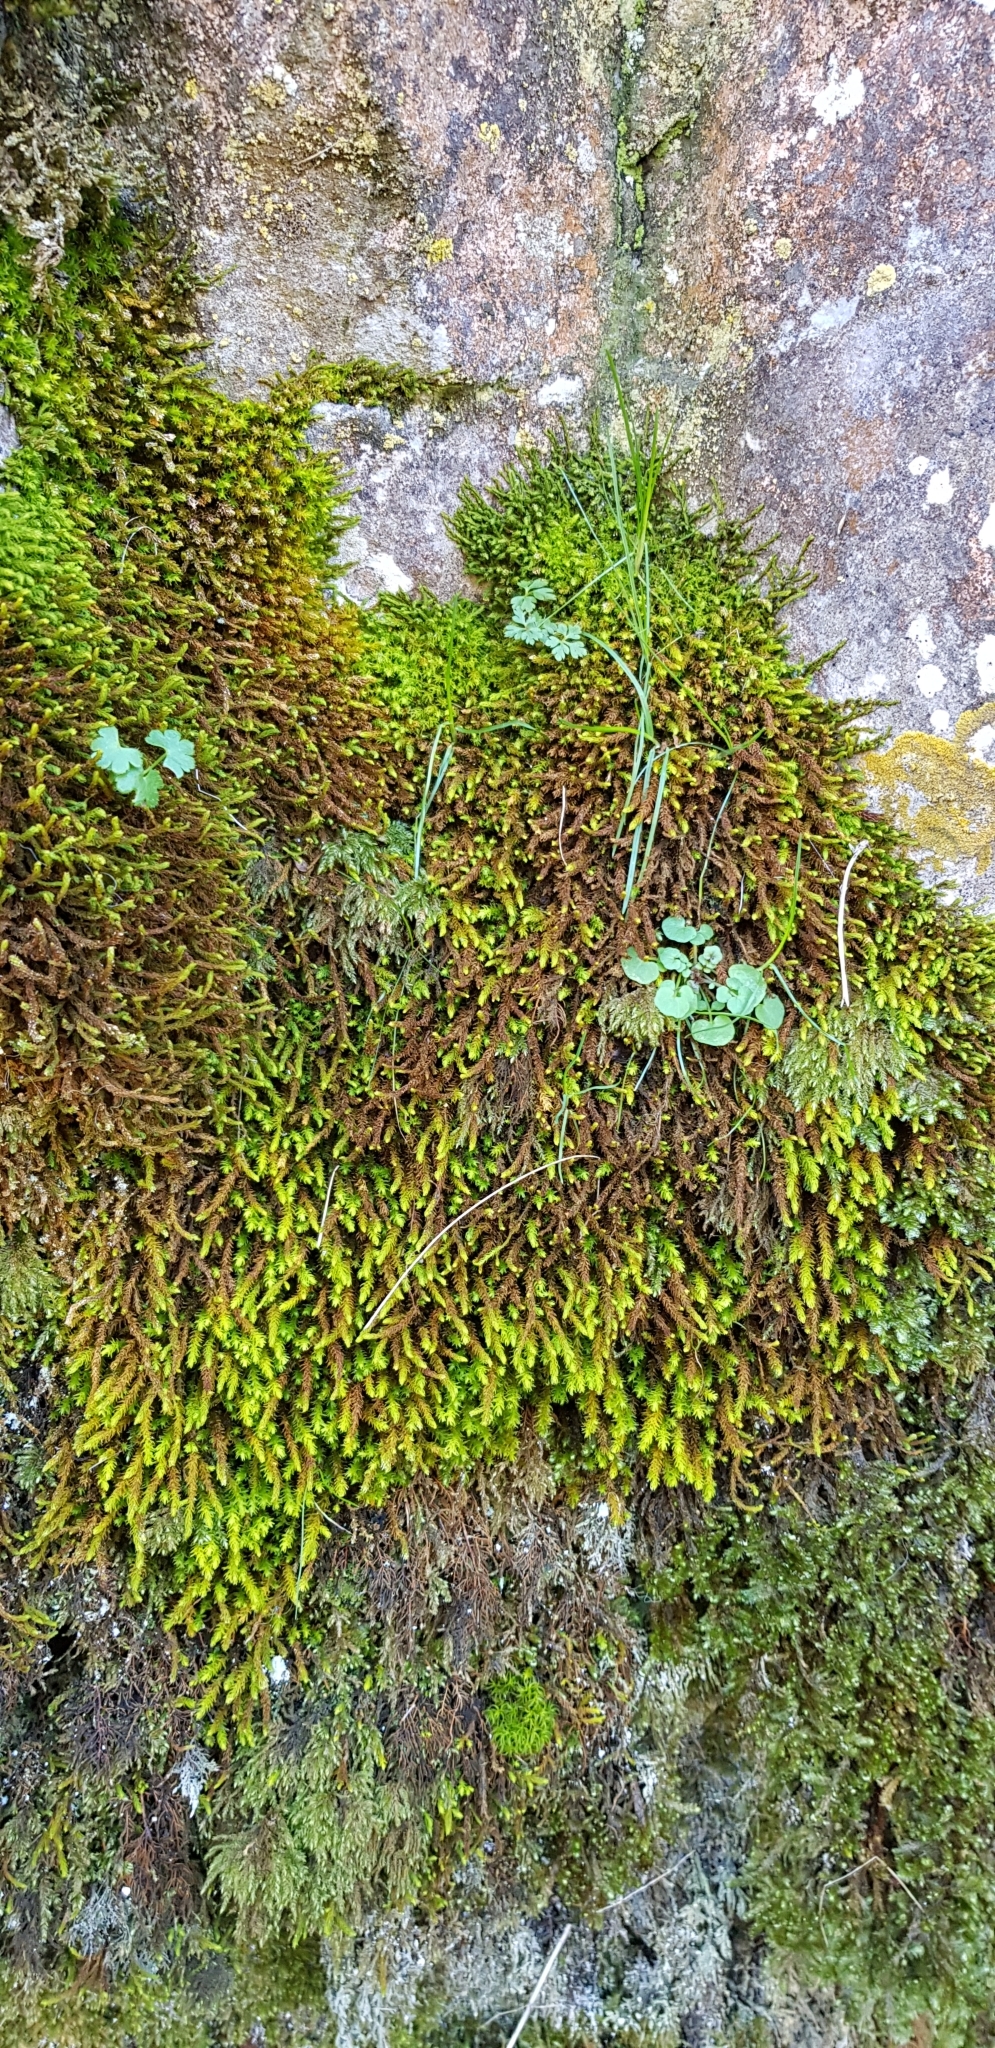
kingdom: Plantae
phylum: Bryophyta
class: Bryopsida
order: Hypnales
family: Anomodontaceae
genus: Anomodon
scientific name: Anomodon viticulosus
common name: Tall anomodon
